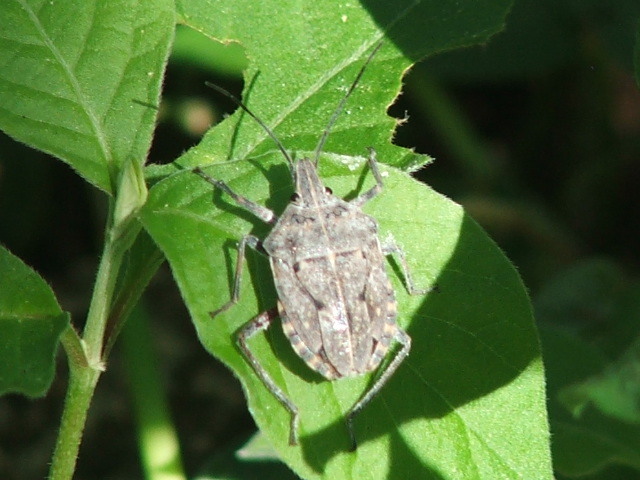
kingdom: Animalia
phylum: Arthropoda
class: Insecta
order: Hemiptera
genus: Peltasticus
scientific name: Peltasticus
